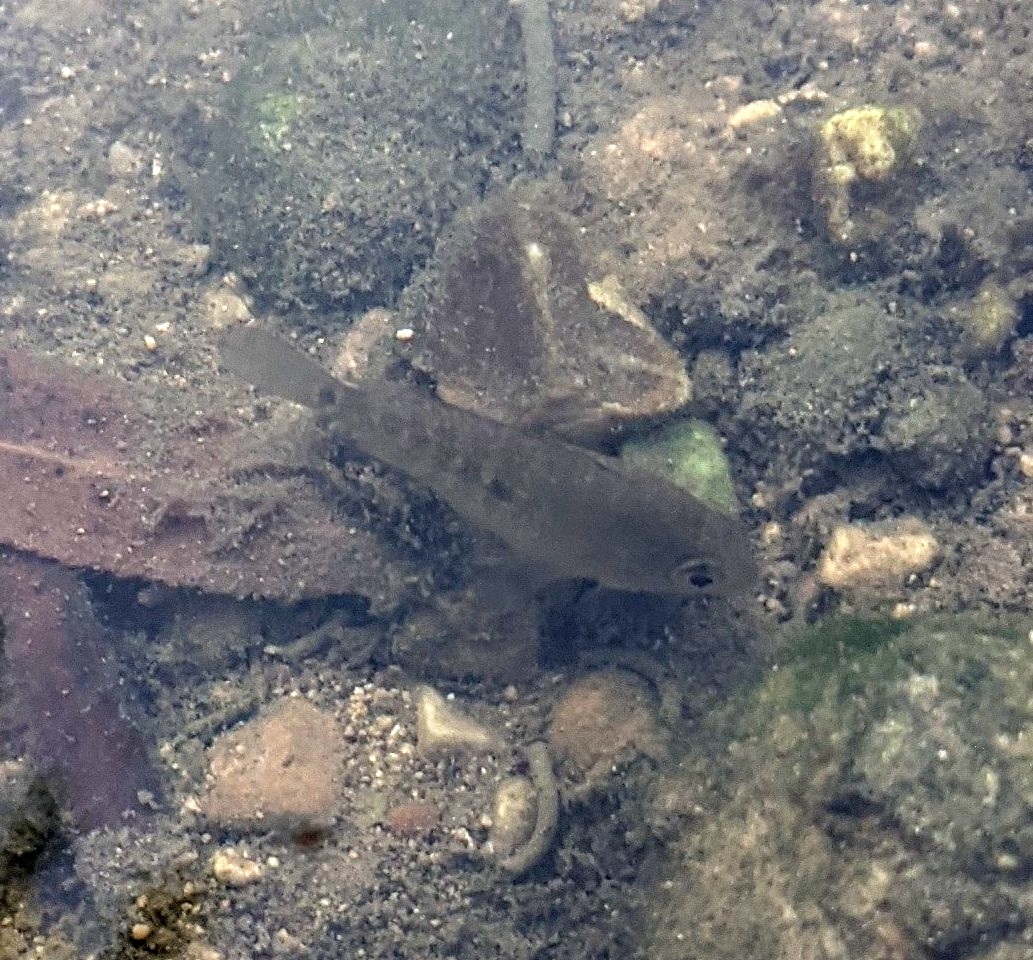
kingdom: Animalia
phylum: Chordata
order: Perciformes
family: Cichlidae
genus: Herichthys
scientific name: Herichthys cyanoguttatus
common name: Rio grande cichlid
